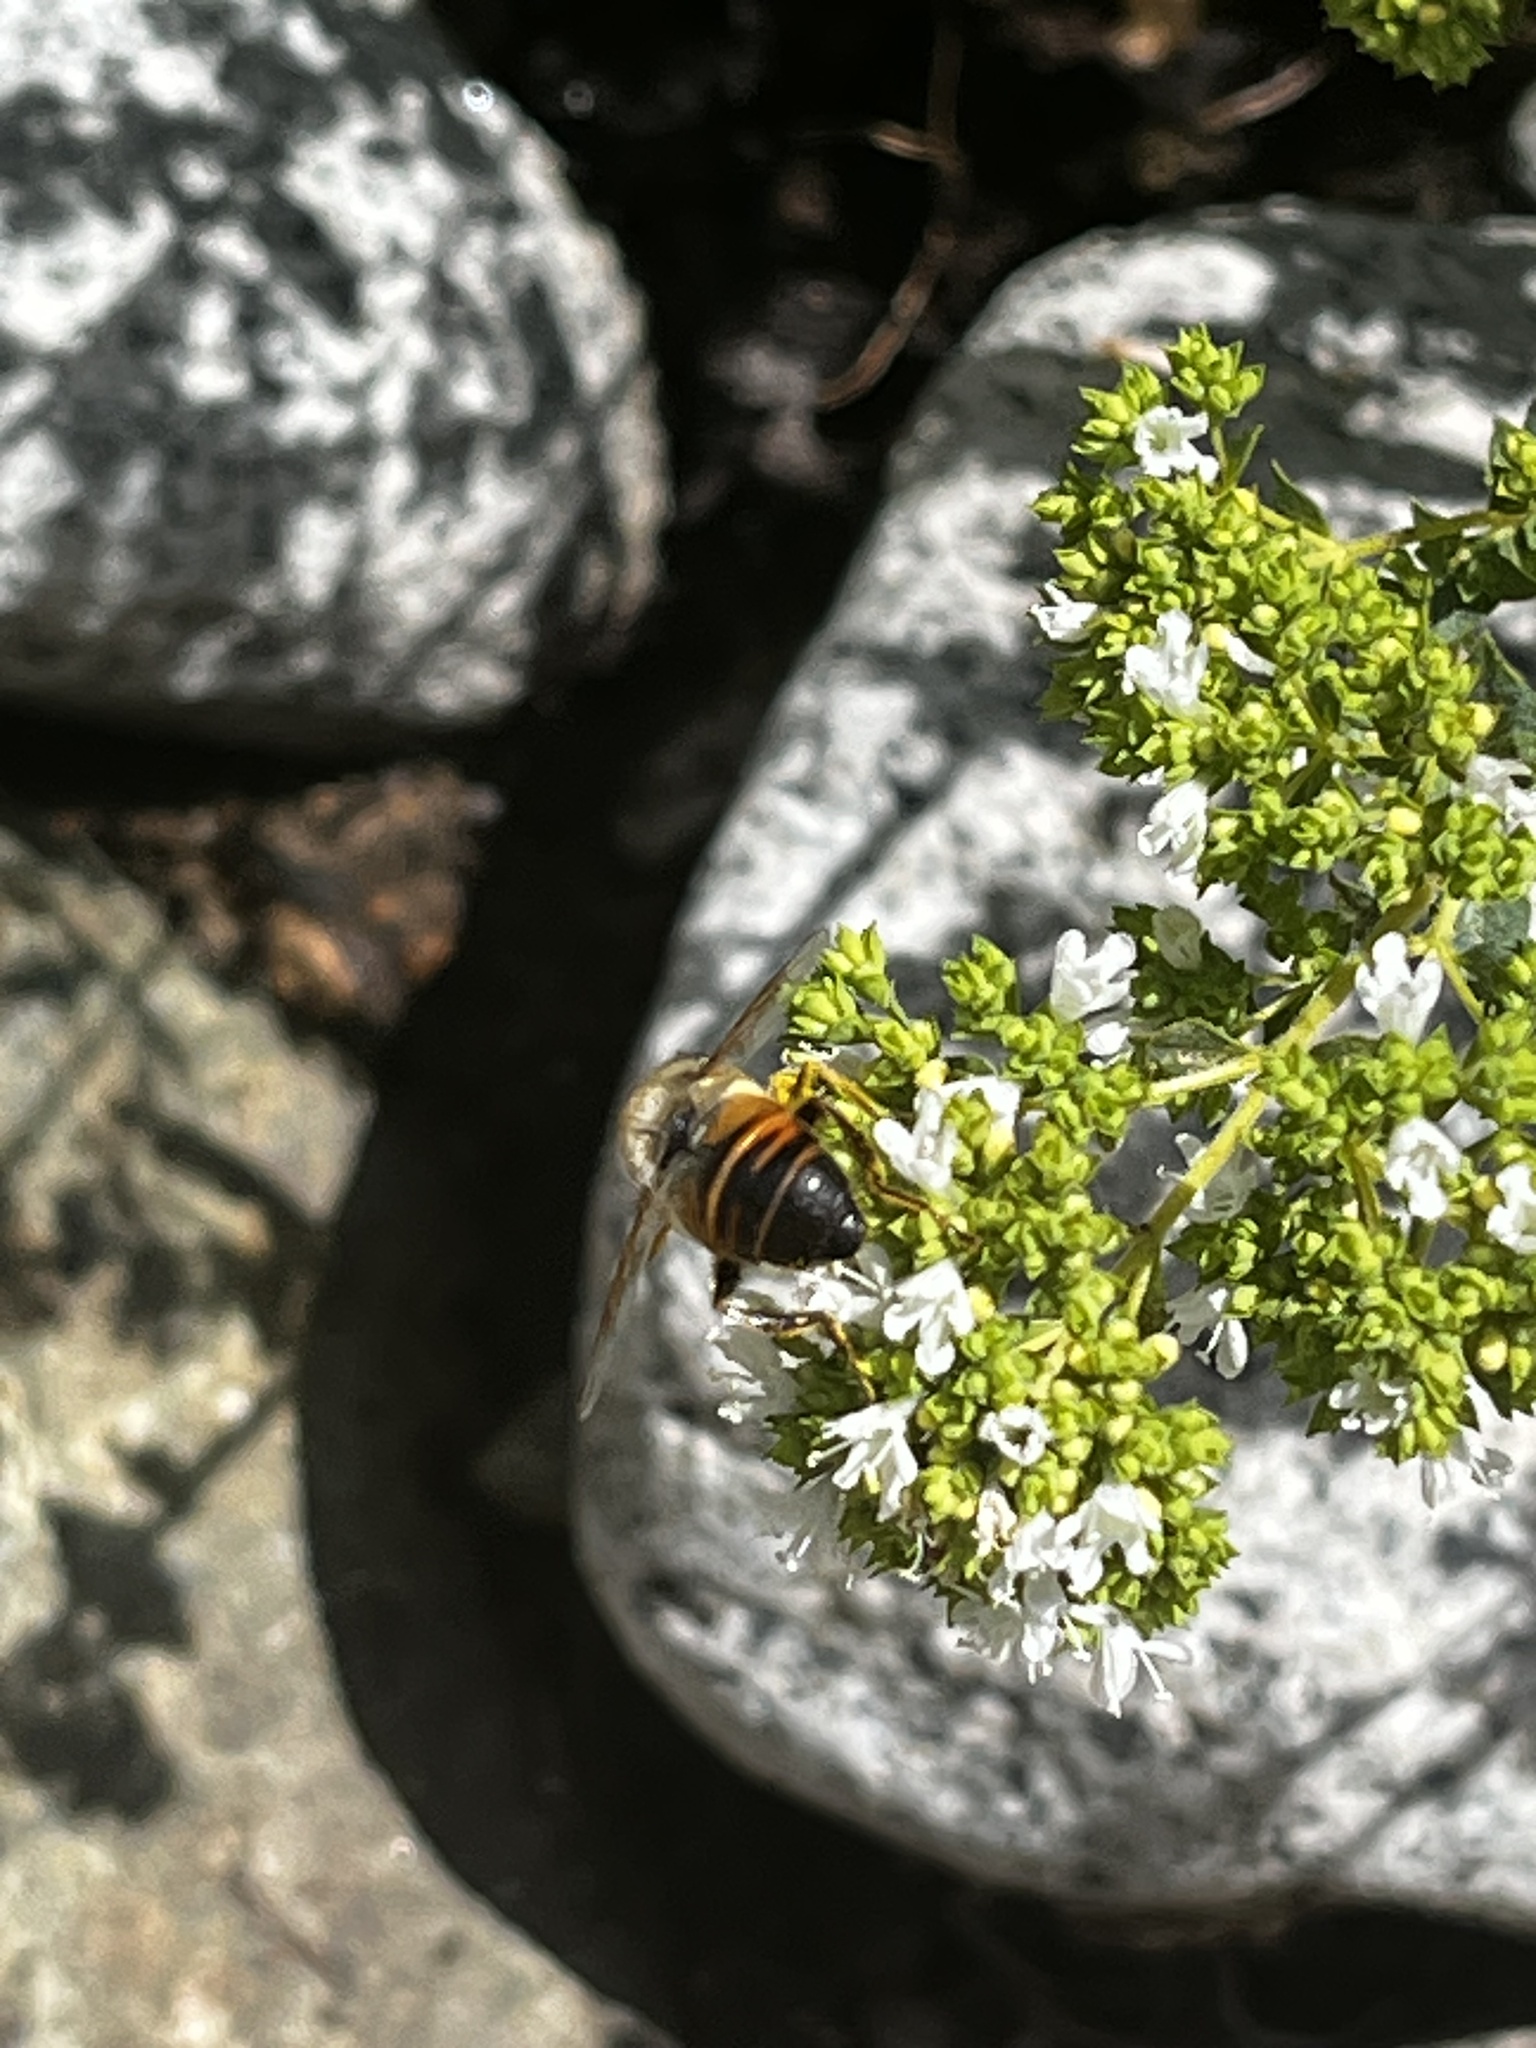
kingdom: Animalia
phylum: Arthropoda
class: Insecta
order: Diptera
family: Syrphidae
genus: Eristalis
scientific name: Eristalis tenax
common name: Drone fly
